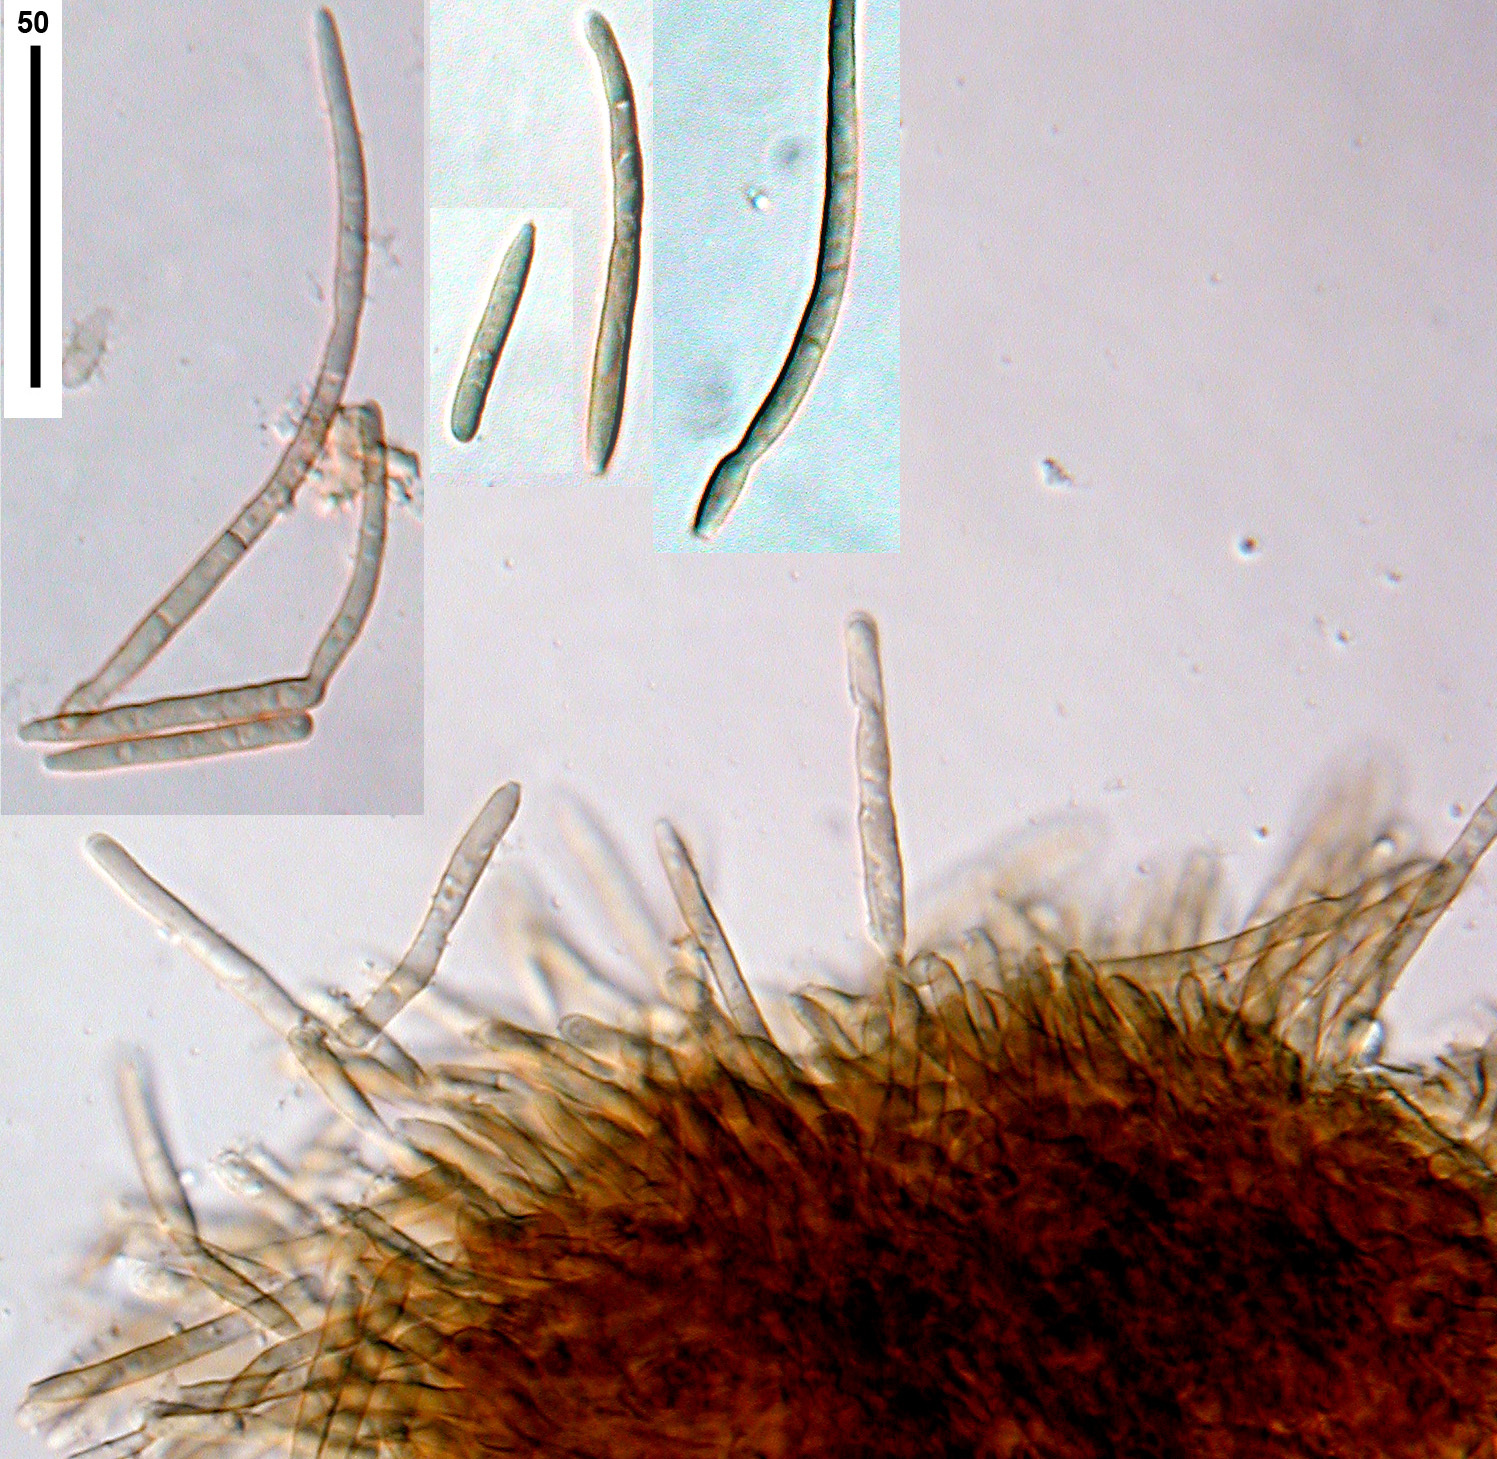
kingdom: Fungi
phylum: Ascomycota
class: Dothideomycetes
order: Mycosphaerellales
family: Mycosphaerellaceae
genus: Pseudocercospora
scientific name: Pseudocercospora ackamae
